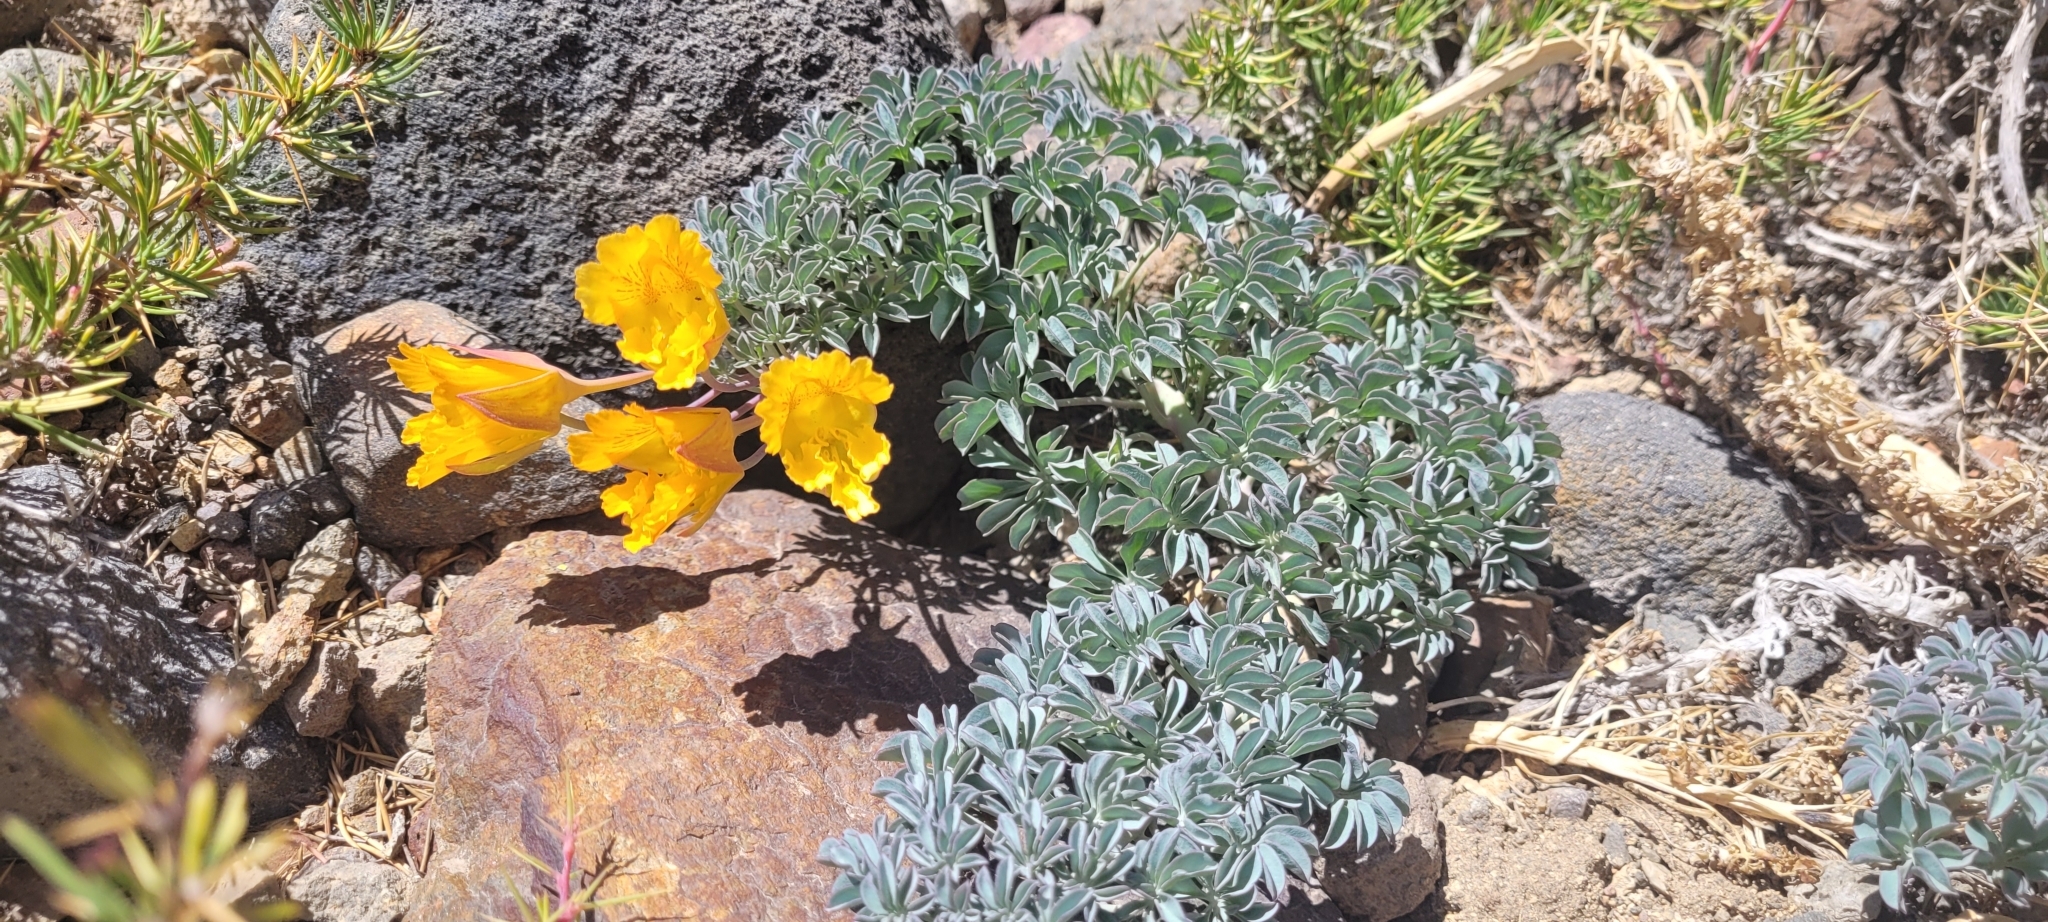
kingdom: Plantae
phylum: Tracheophyta
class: Magnoliopsida
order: Brassicales
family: Tropaeolaceae
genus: Tropaeolum
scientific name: Tropaeolum polyphyllum
